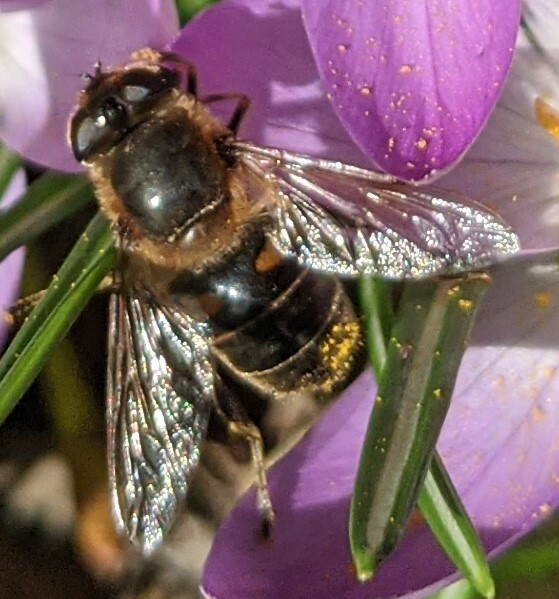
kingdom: Animalia
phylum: Arthropoda
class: Insecta
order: Diptera
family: Syrphidae
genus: Eristalis
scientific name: Eristalis tenax
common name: Drone fly
